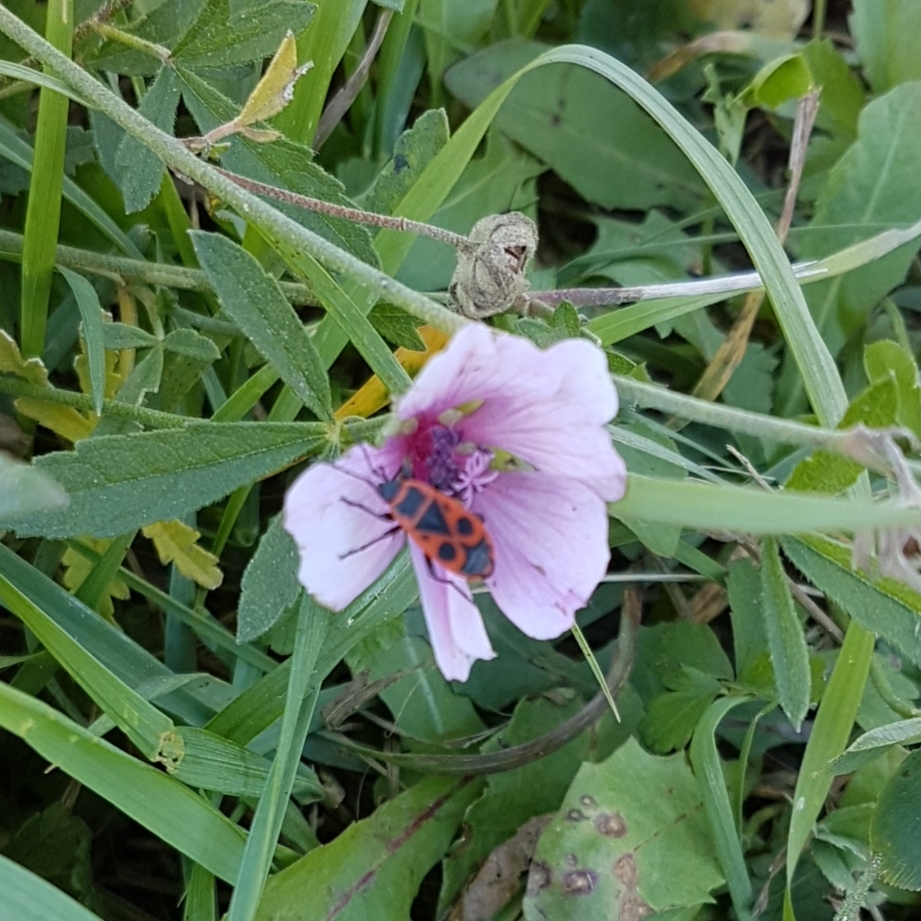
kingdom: Animalia
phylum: Arthropoda
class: Insecta
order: Hemiptera
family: Pyrrhocoridae
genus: Pyrrhocoris
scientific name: Pyrrhocoris apterus
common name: Firebug
